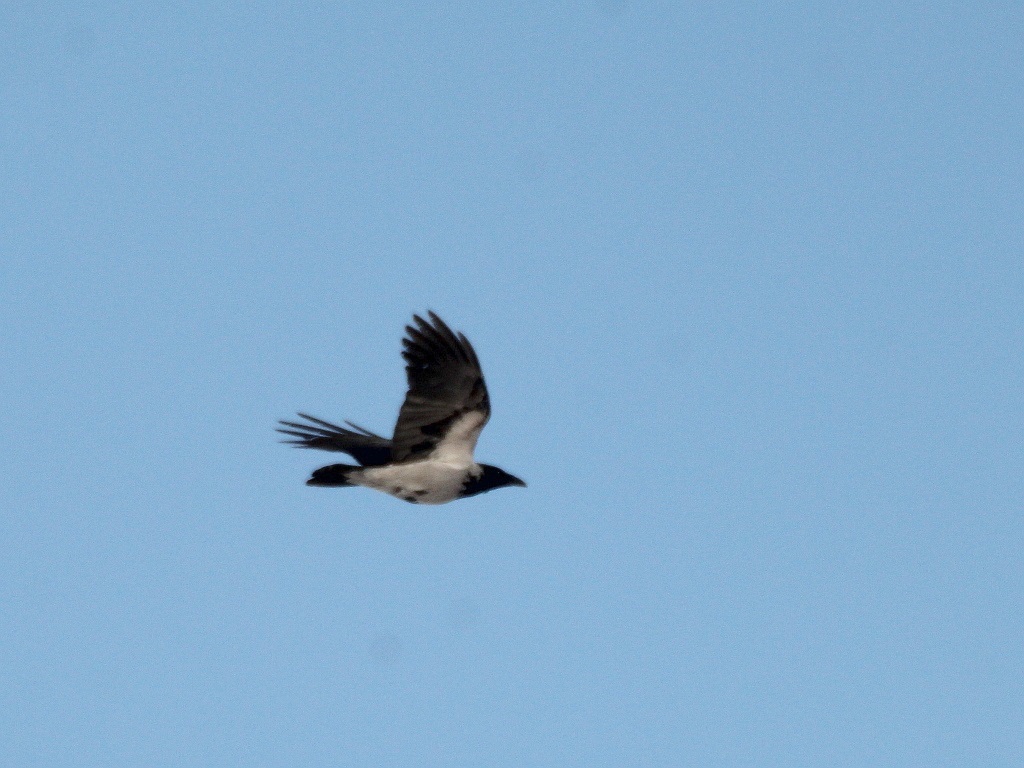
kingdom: Animalia
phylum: Chordata
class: Aves
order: Passeriformes
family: Corvidae
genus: Corvus
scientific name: Corvus cornix
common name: Hooded crow
